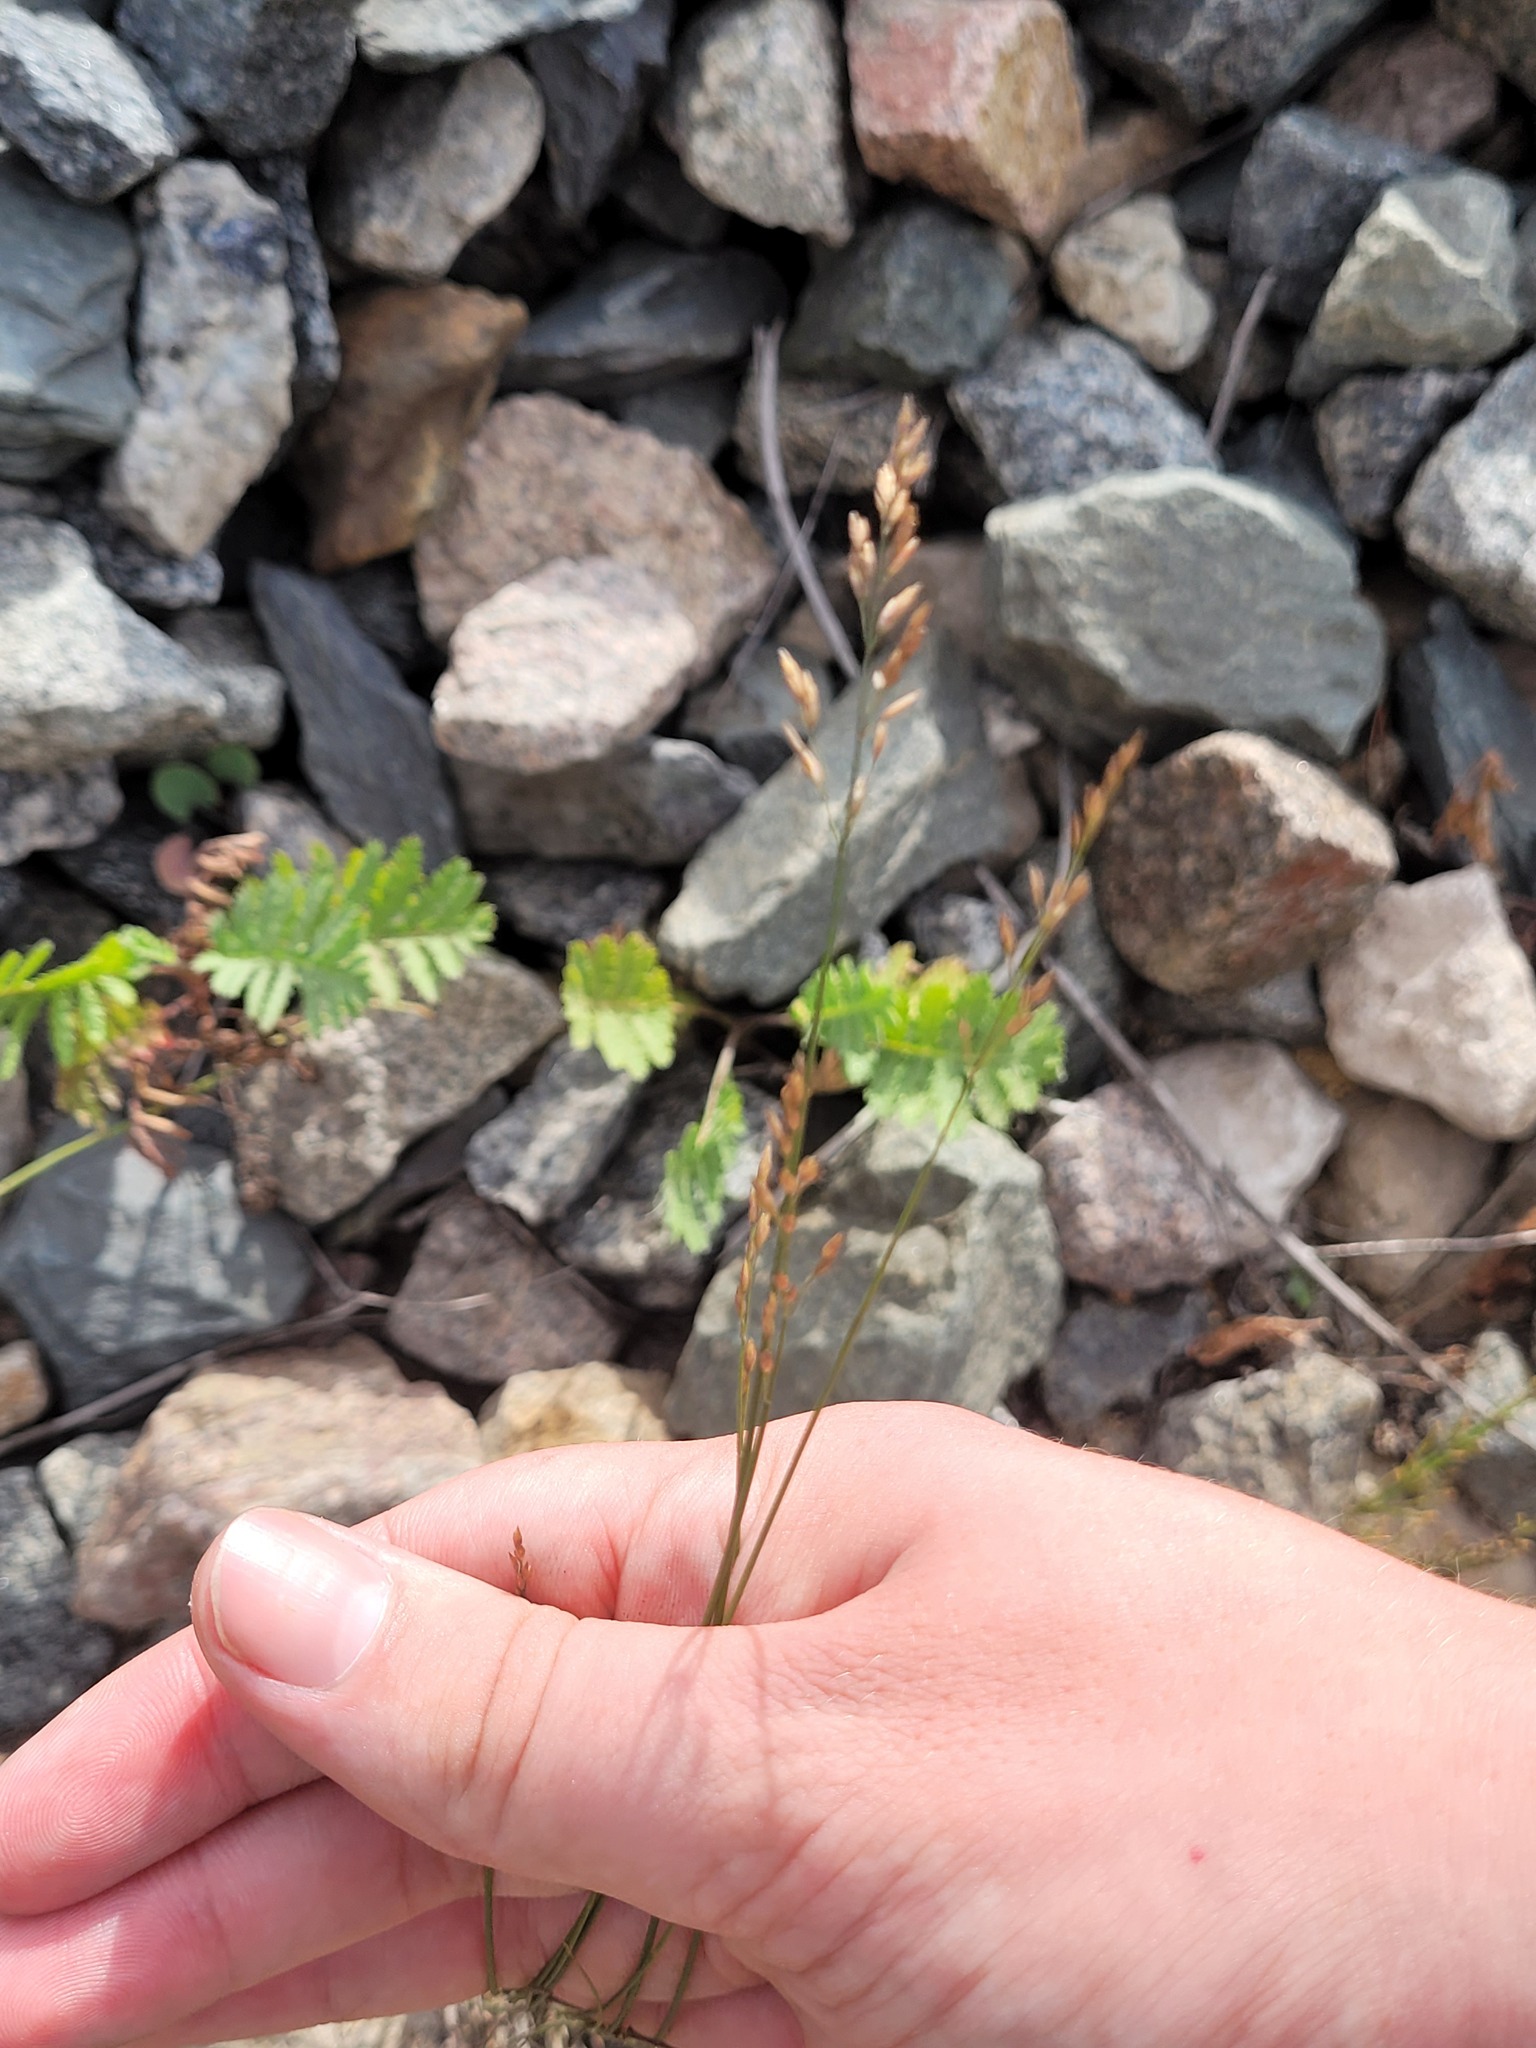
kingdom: Plantae
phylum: Tracheophyta
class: Liliopsida
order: Poales
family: Poaceae
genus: Poa
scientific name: Poa compressa
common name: Canada bluegrass
